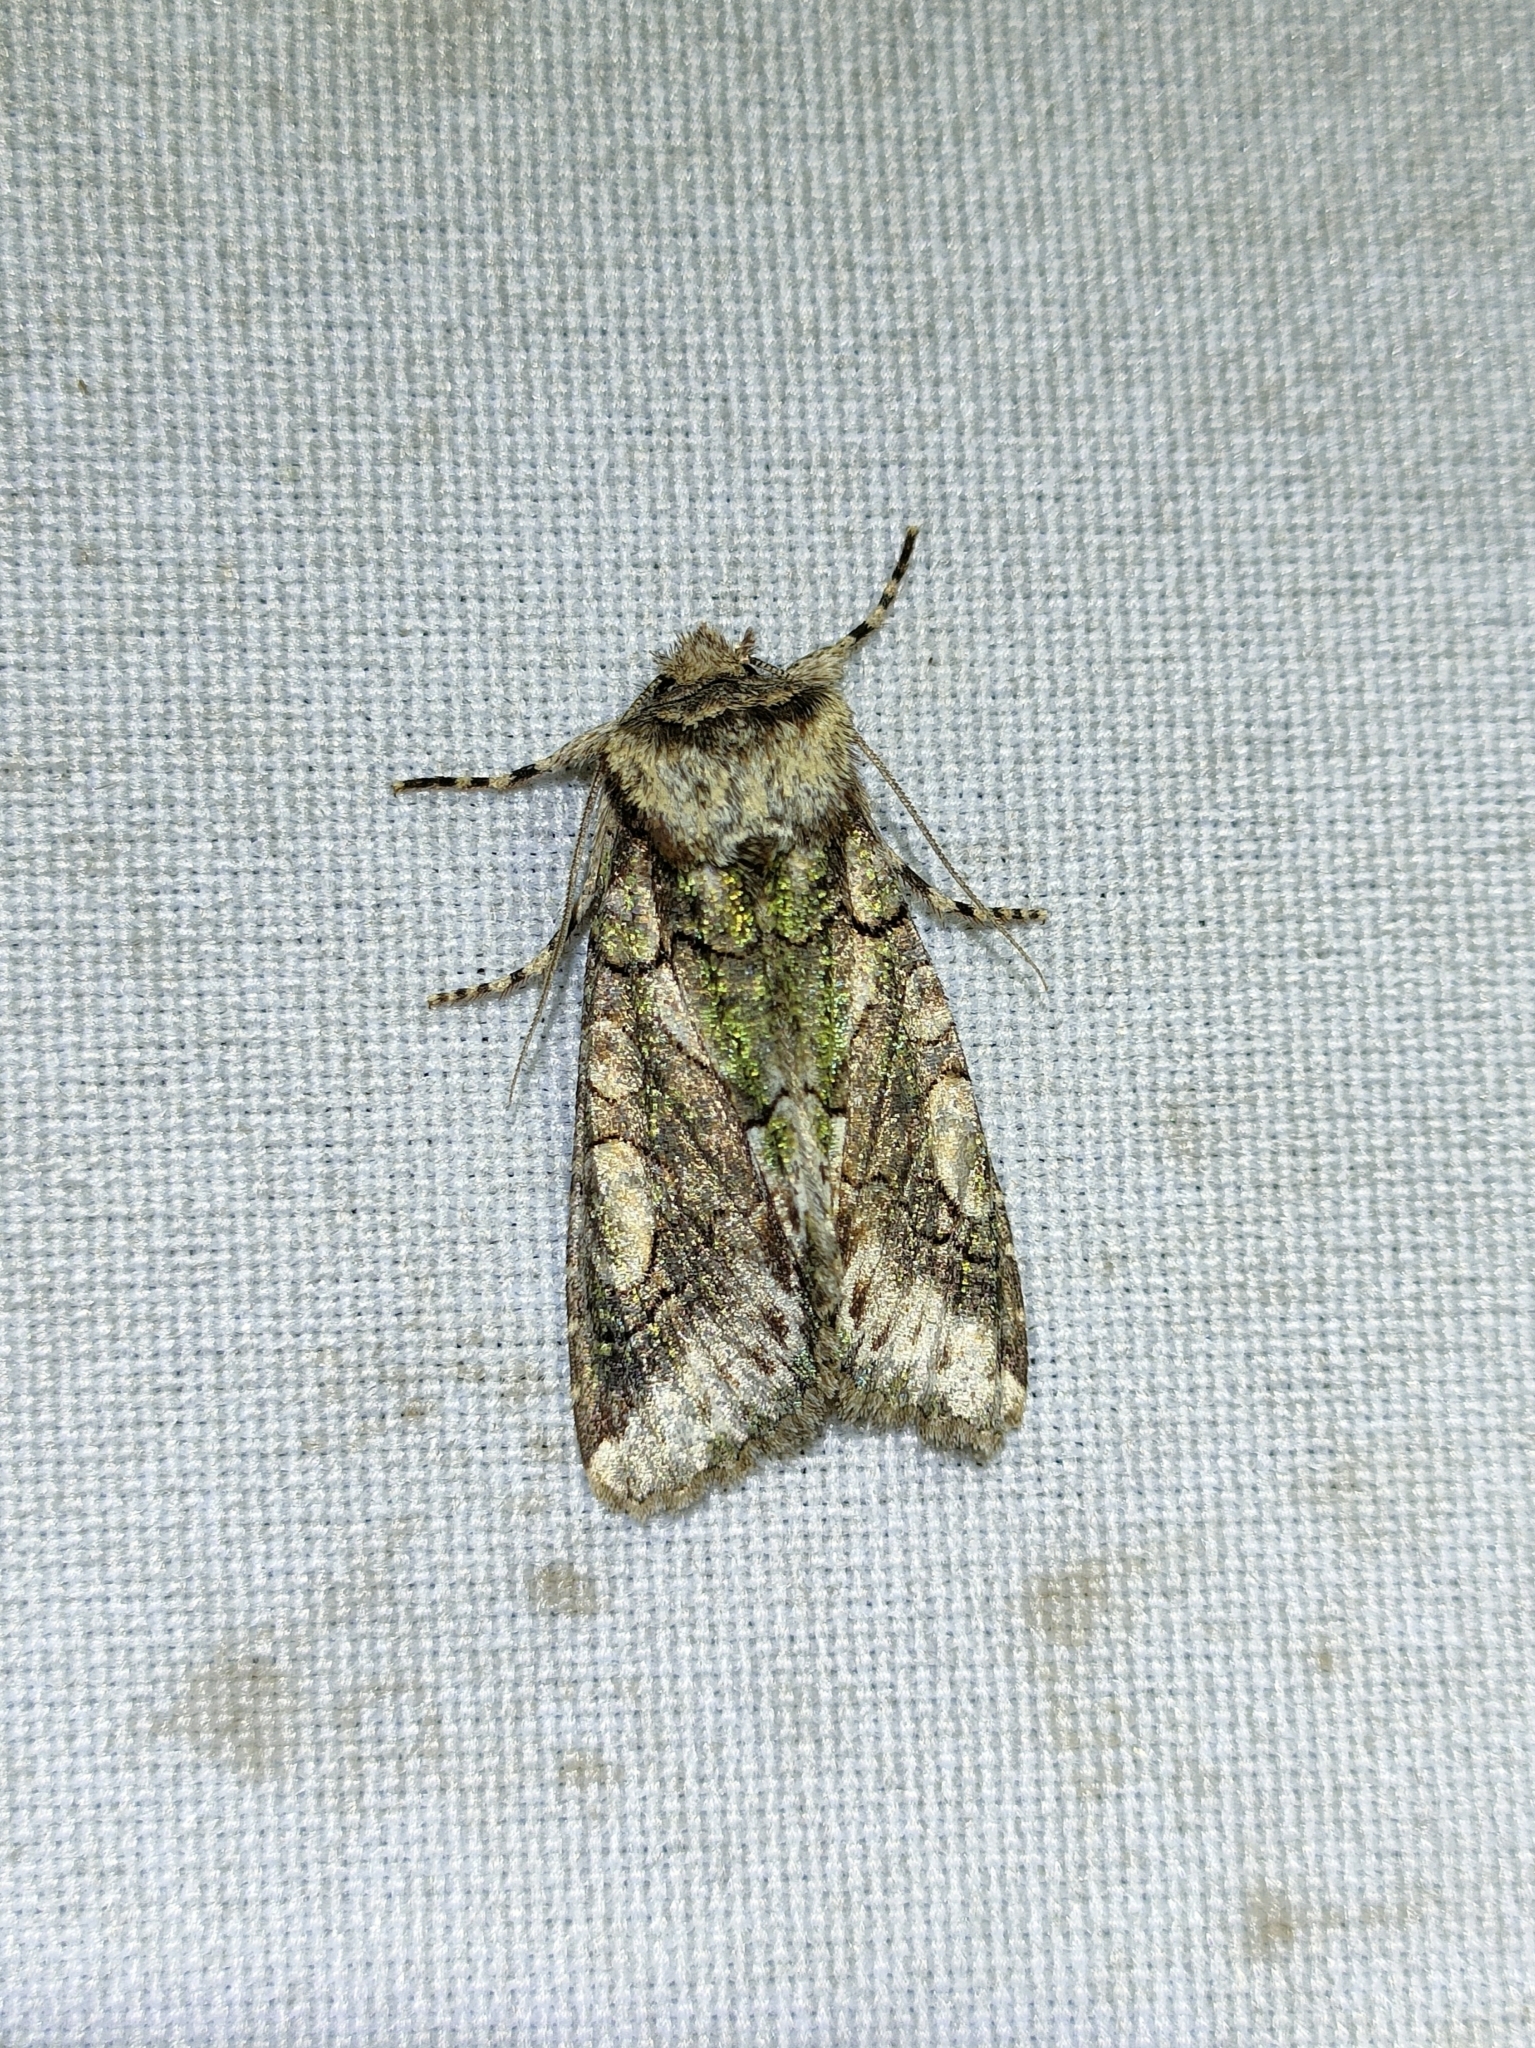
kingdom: Animalia
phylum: Arthropoda
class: Insecta
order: Lepidoptera
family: Noctuidae
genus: Allophyes
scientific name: Allophyes alfaroi
